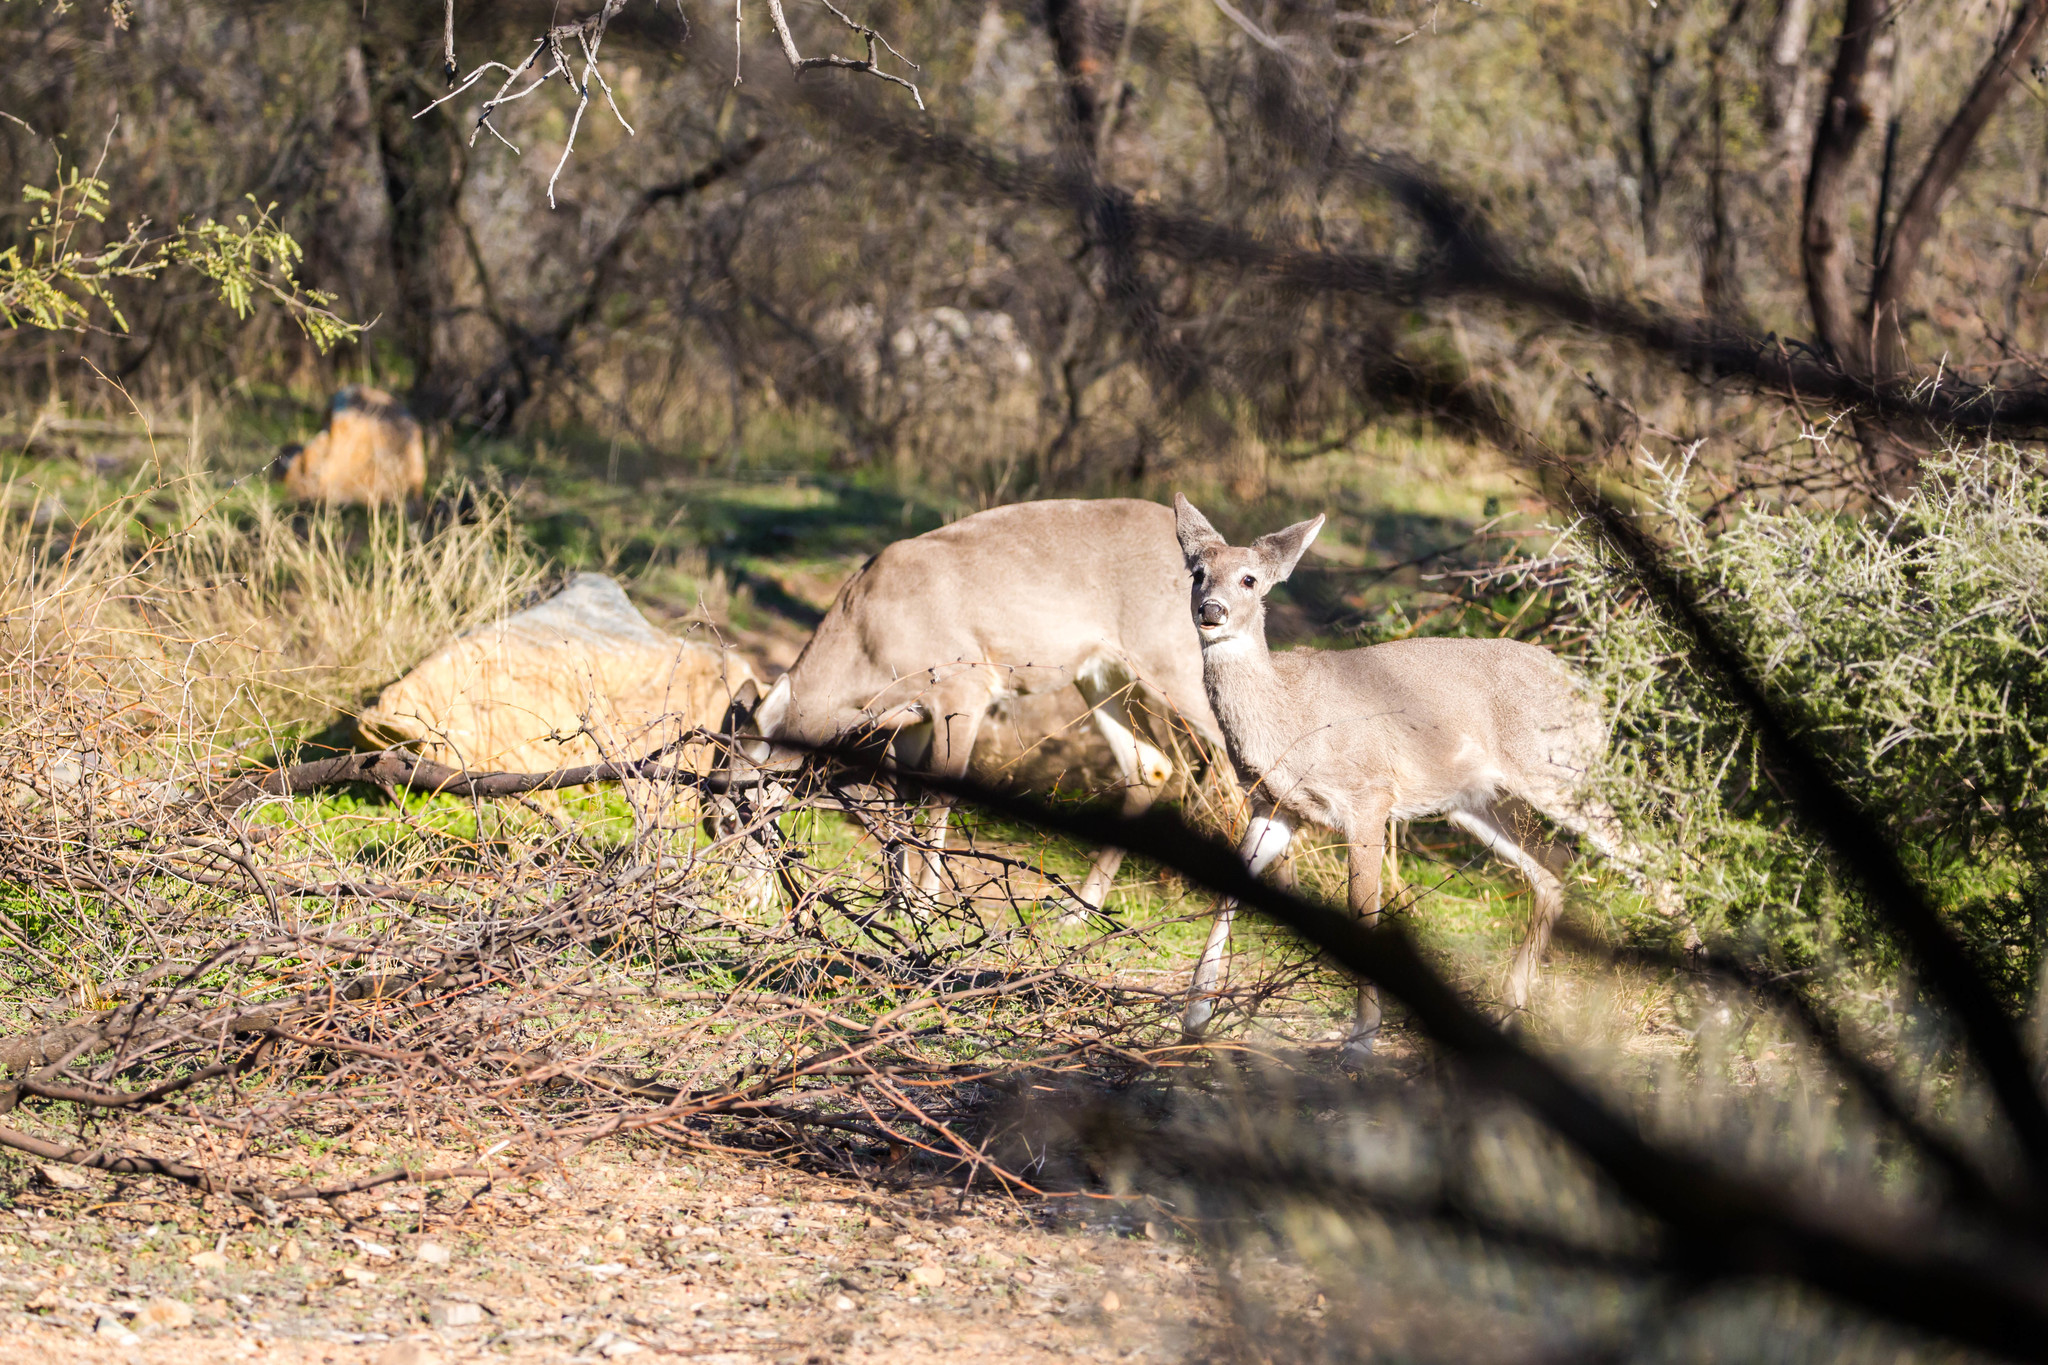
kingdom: Animalia
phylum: Chordata
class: Mammalia
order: Artiodactyla
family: Cervidae
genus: Odocoileus
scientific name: Odocoileus virginianus
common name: White-tailed deer
